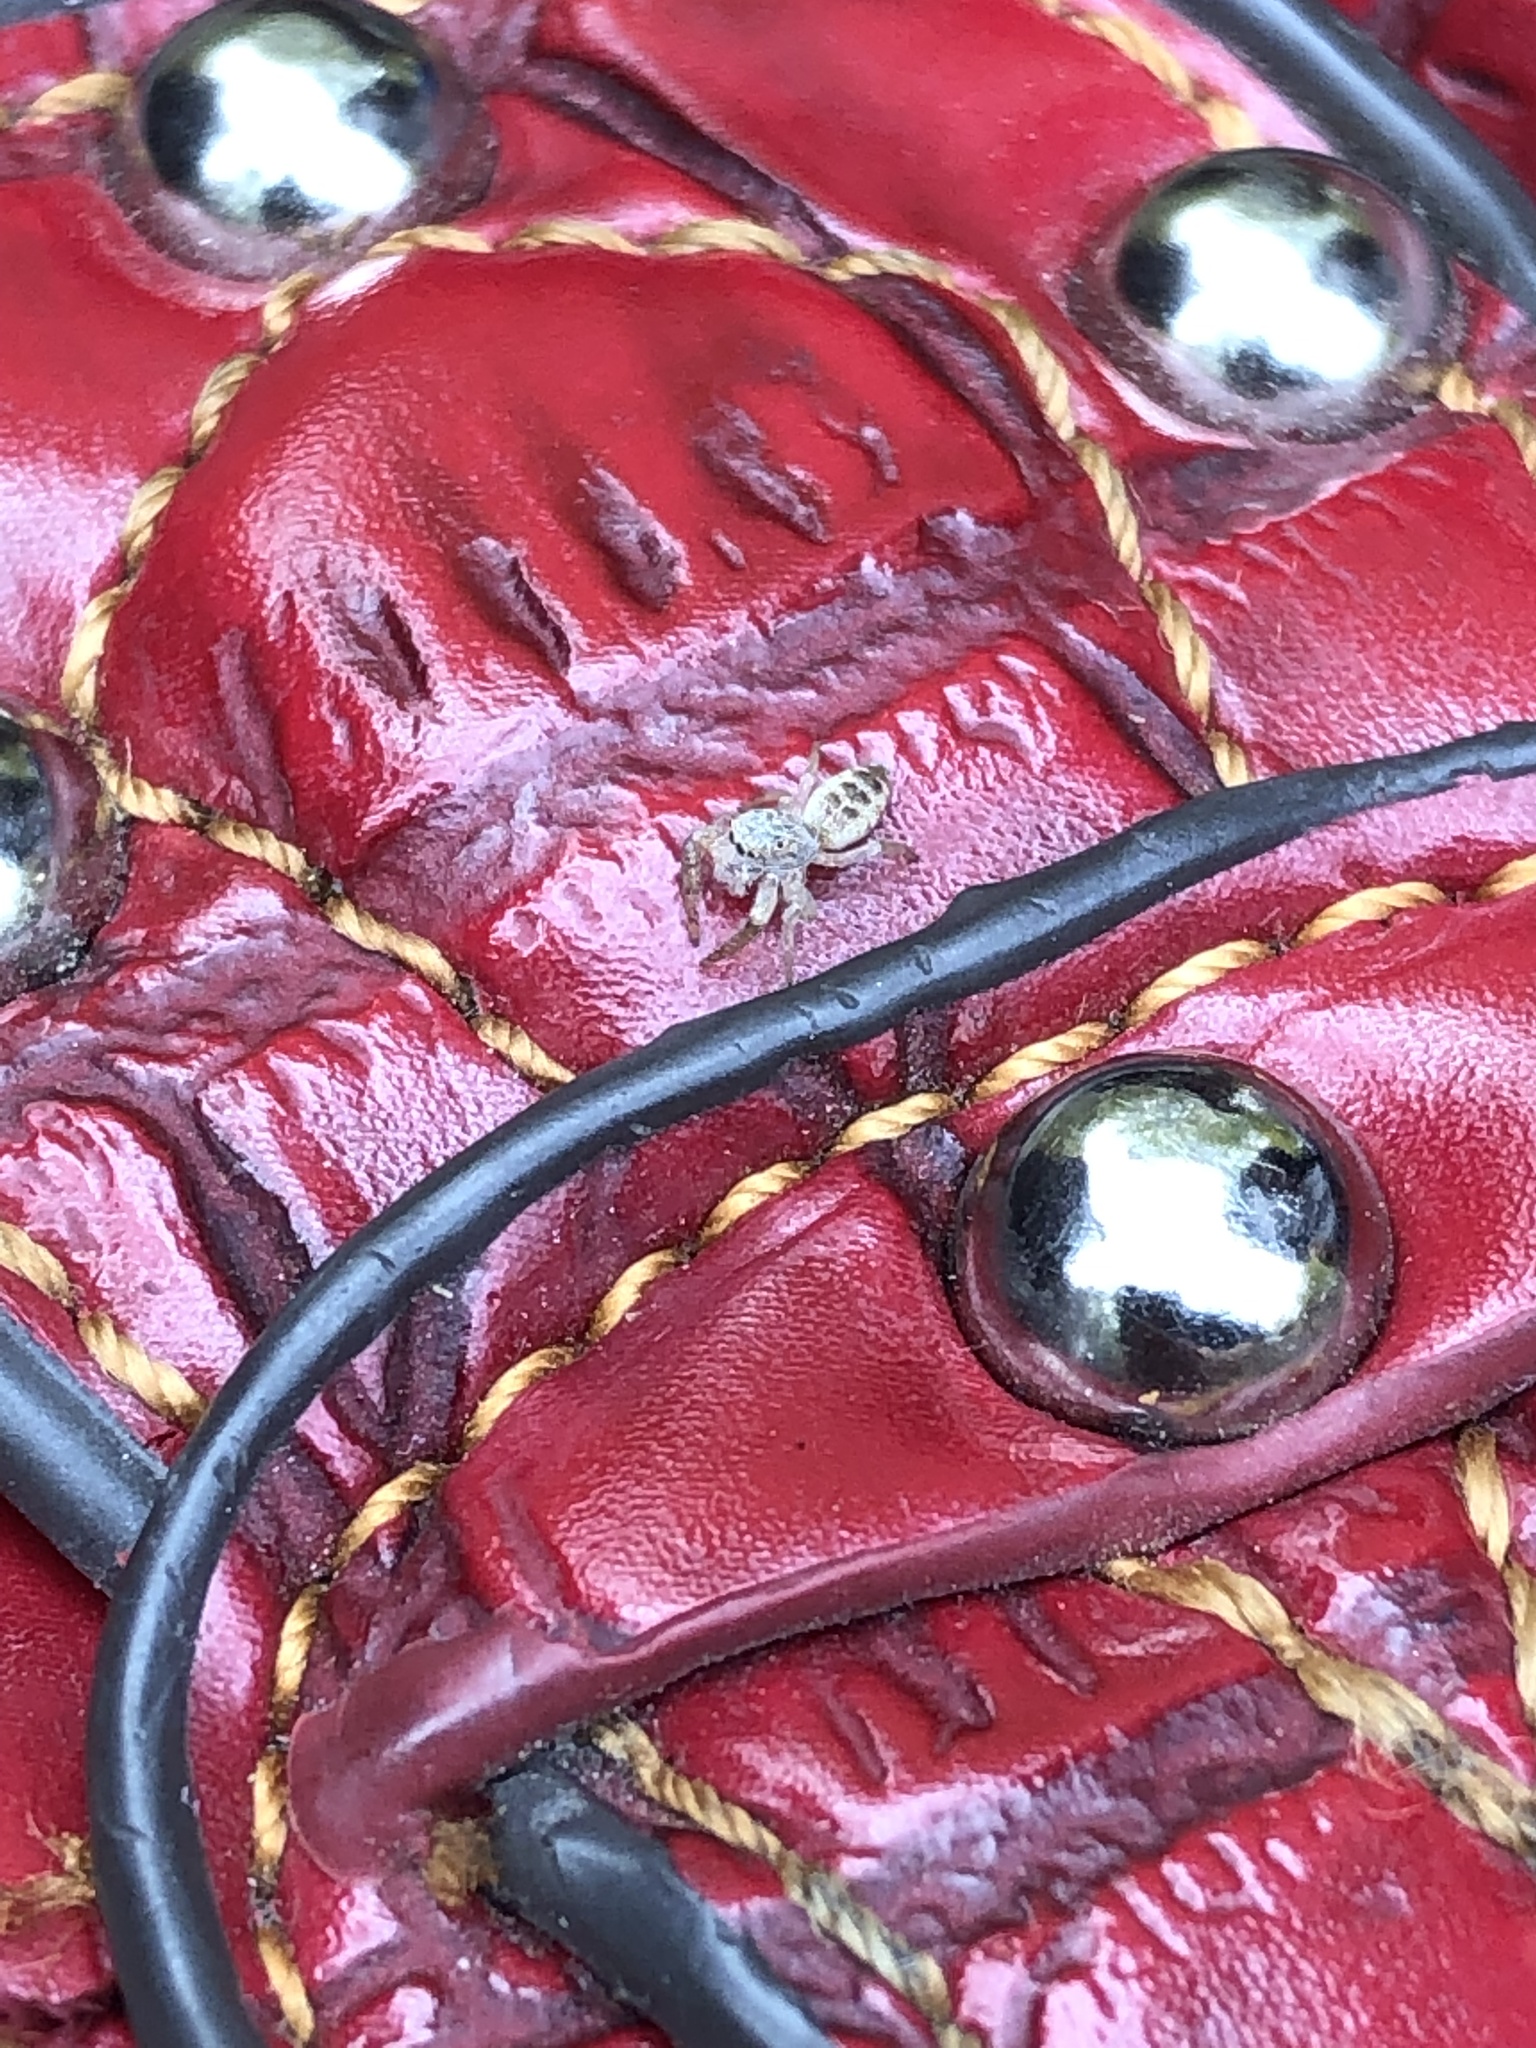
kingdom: Animalia
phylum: Arthropoda
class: Arachnida
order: Araneae
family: Salticidae
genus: Hentzia
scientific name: Hentzia mitrata
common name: White-jawed jumping spider
